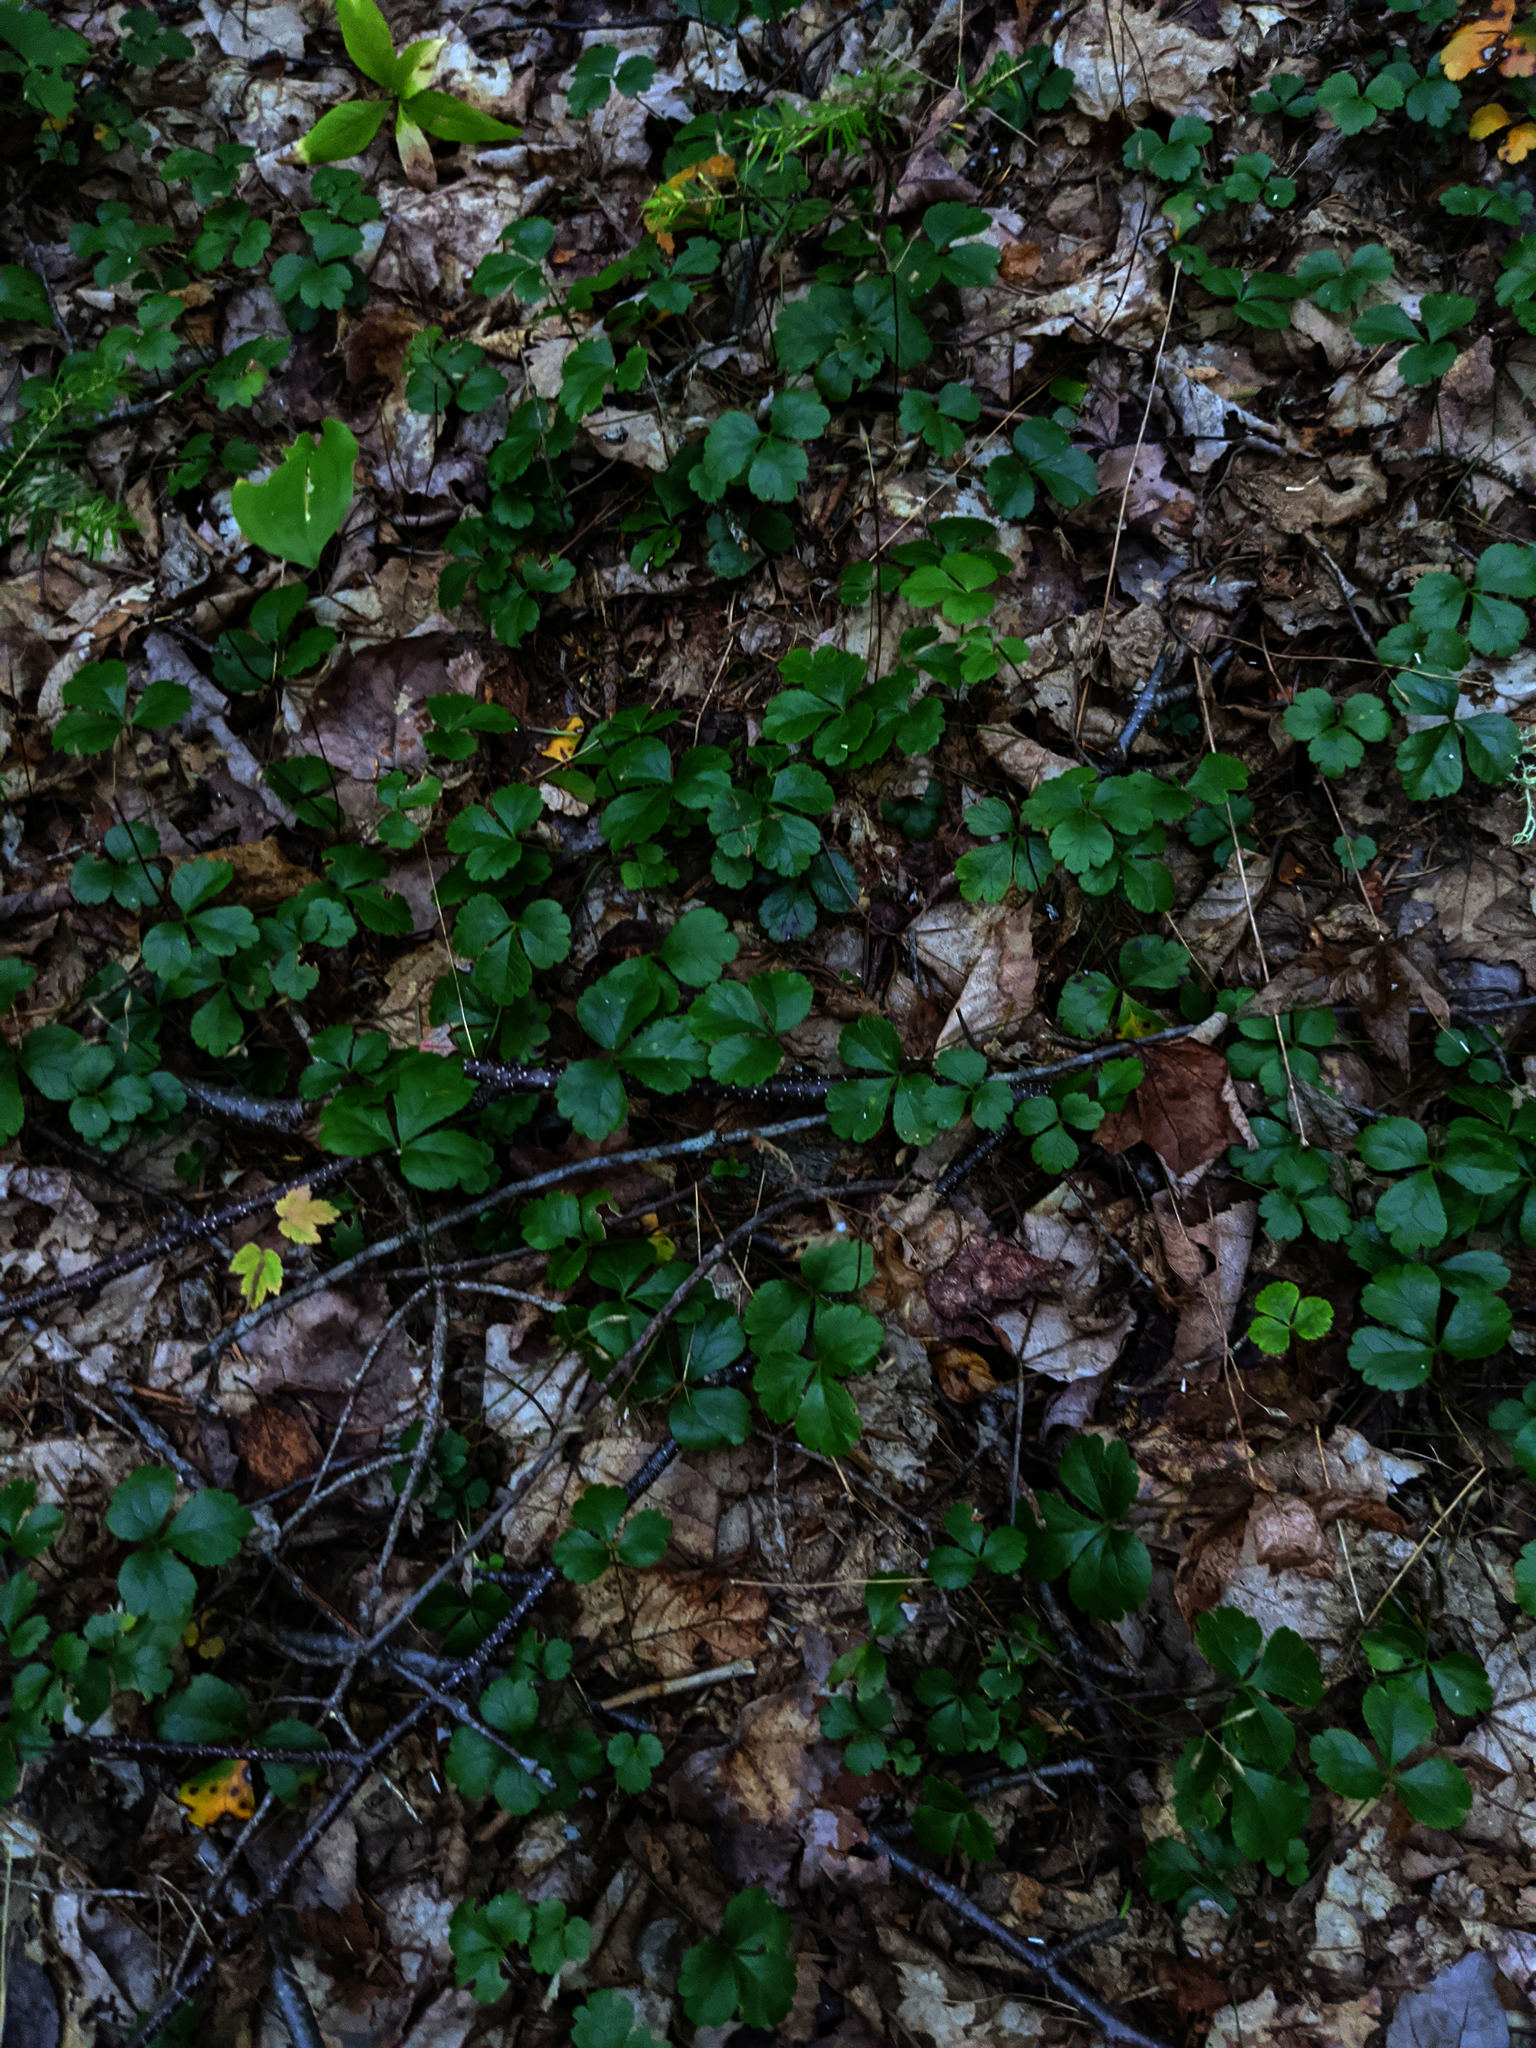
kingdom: Plantae
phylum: Tracheophyta
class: Magnoliopsida
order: Ranunculales
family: Ranunculaceae
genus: Coptis
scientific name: Coptis trifolia
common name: Canker-root
